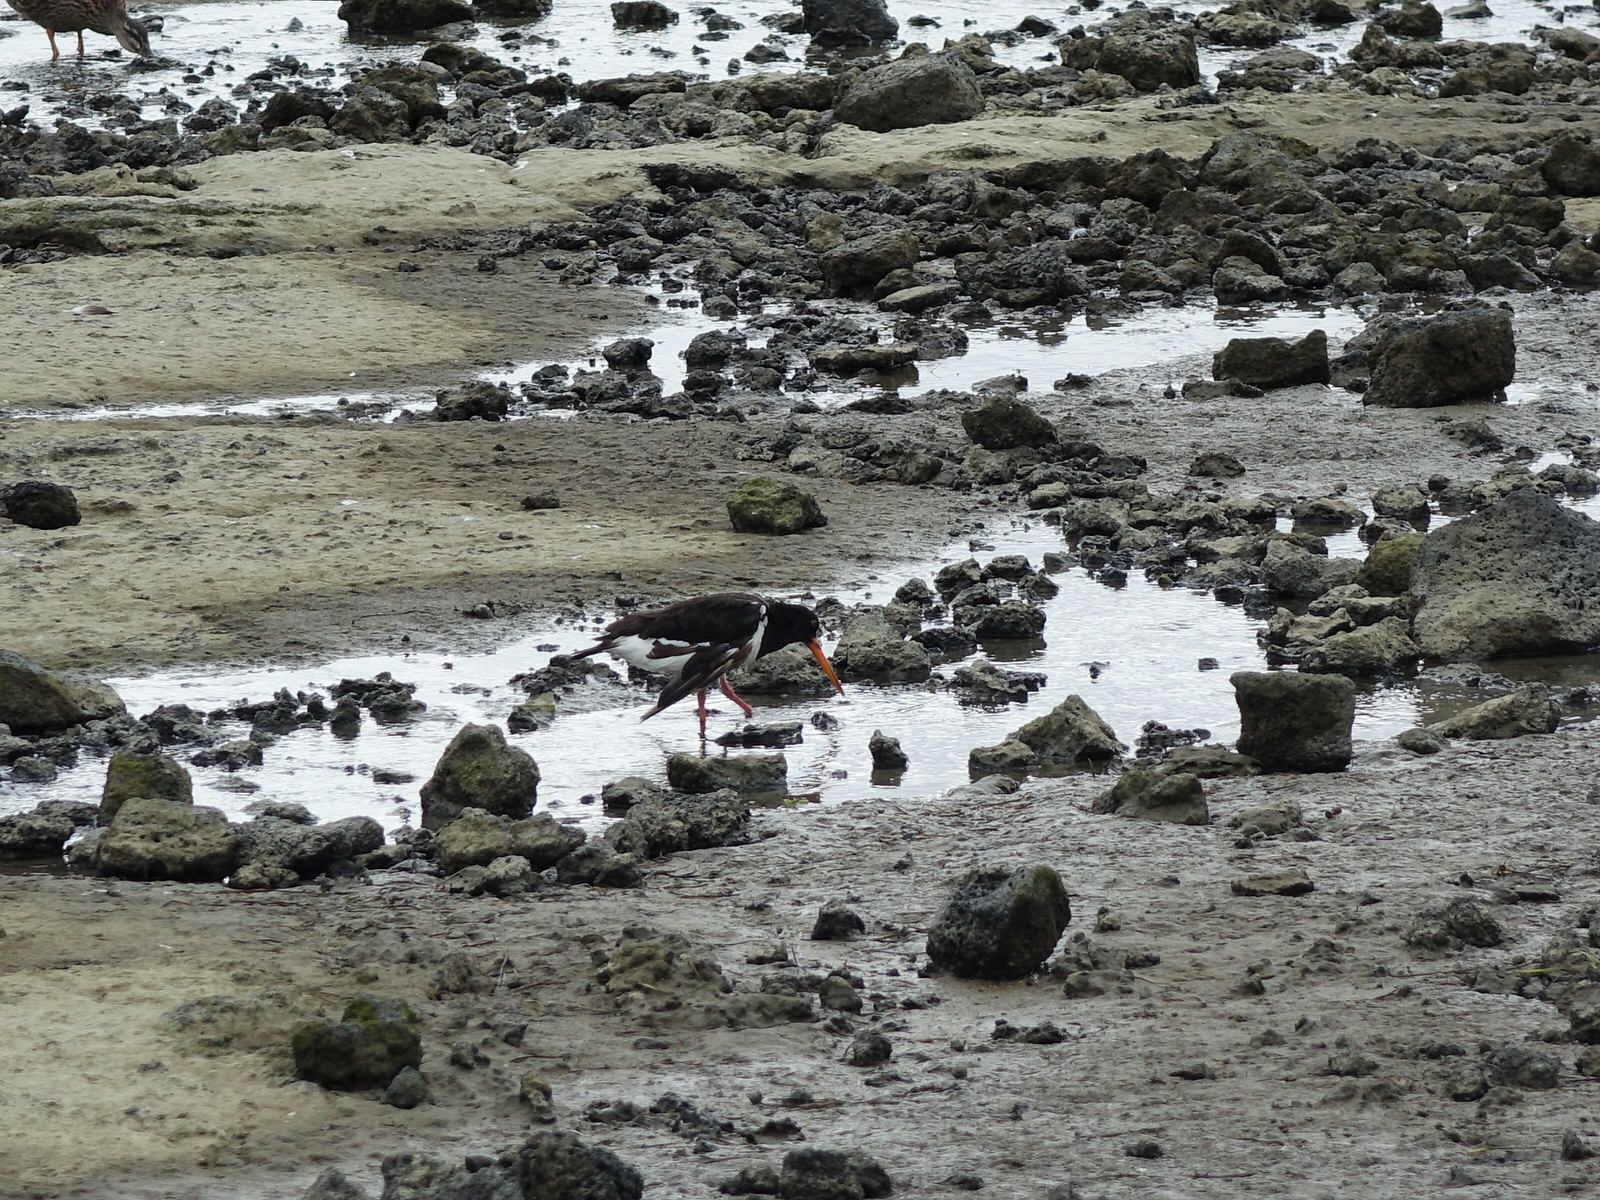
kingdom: Animalia
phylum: Chordata
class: Aves
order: Charadriiformes
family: Haematopodidae
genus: Haematopus
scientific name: Haematopus finschi
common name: South island oystercatcher
